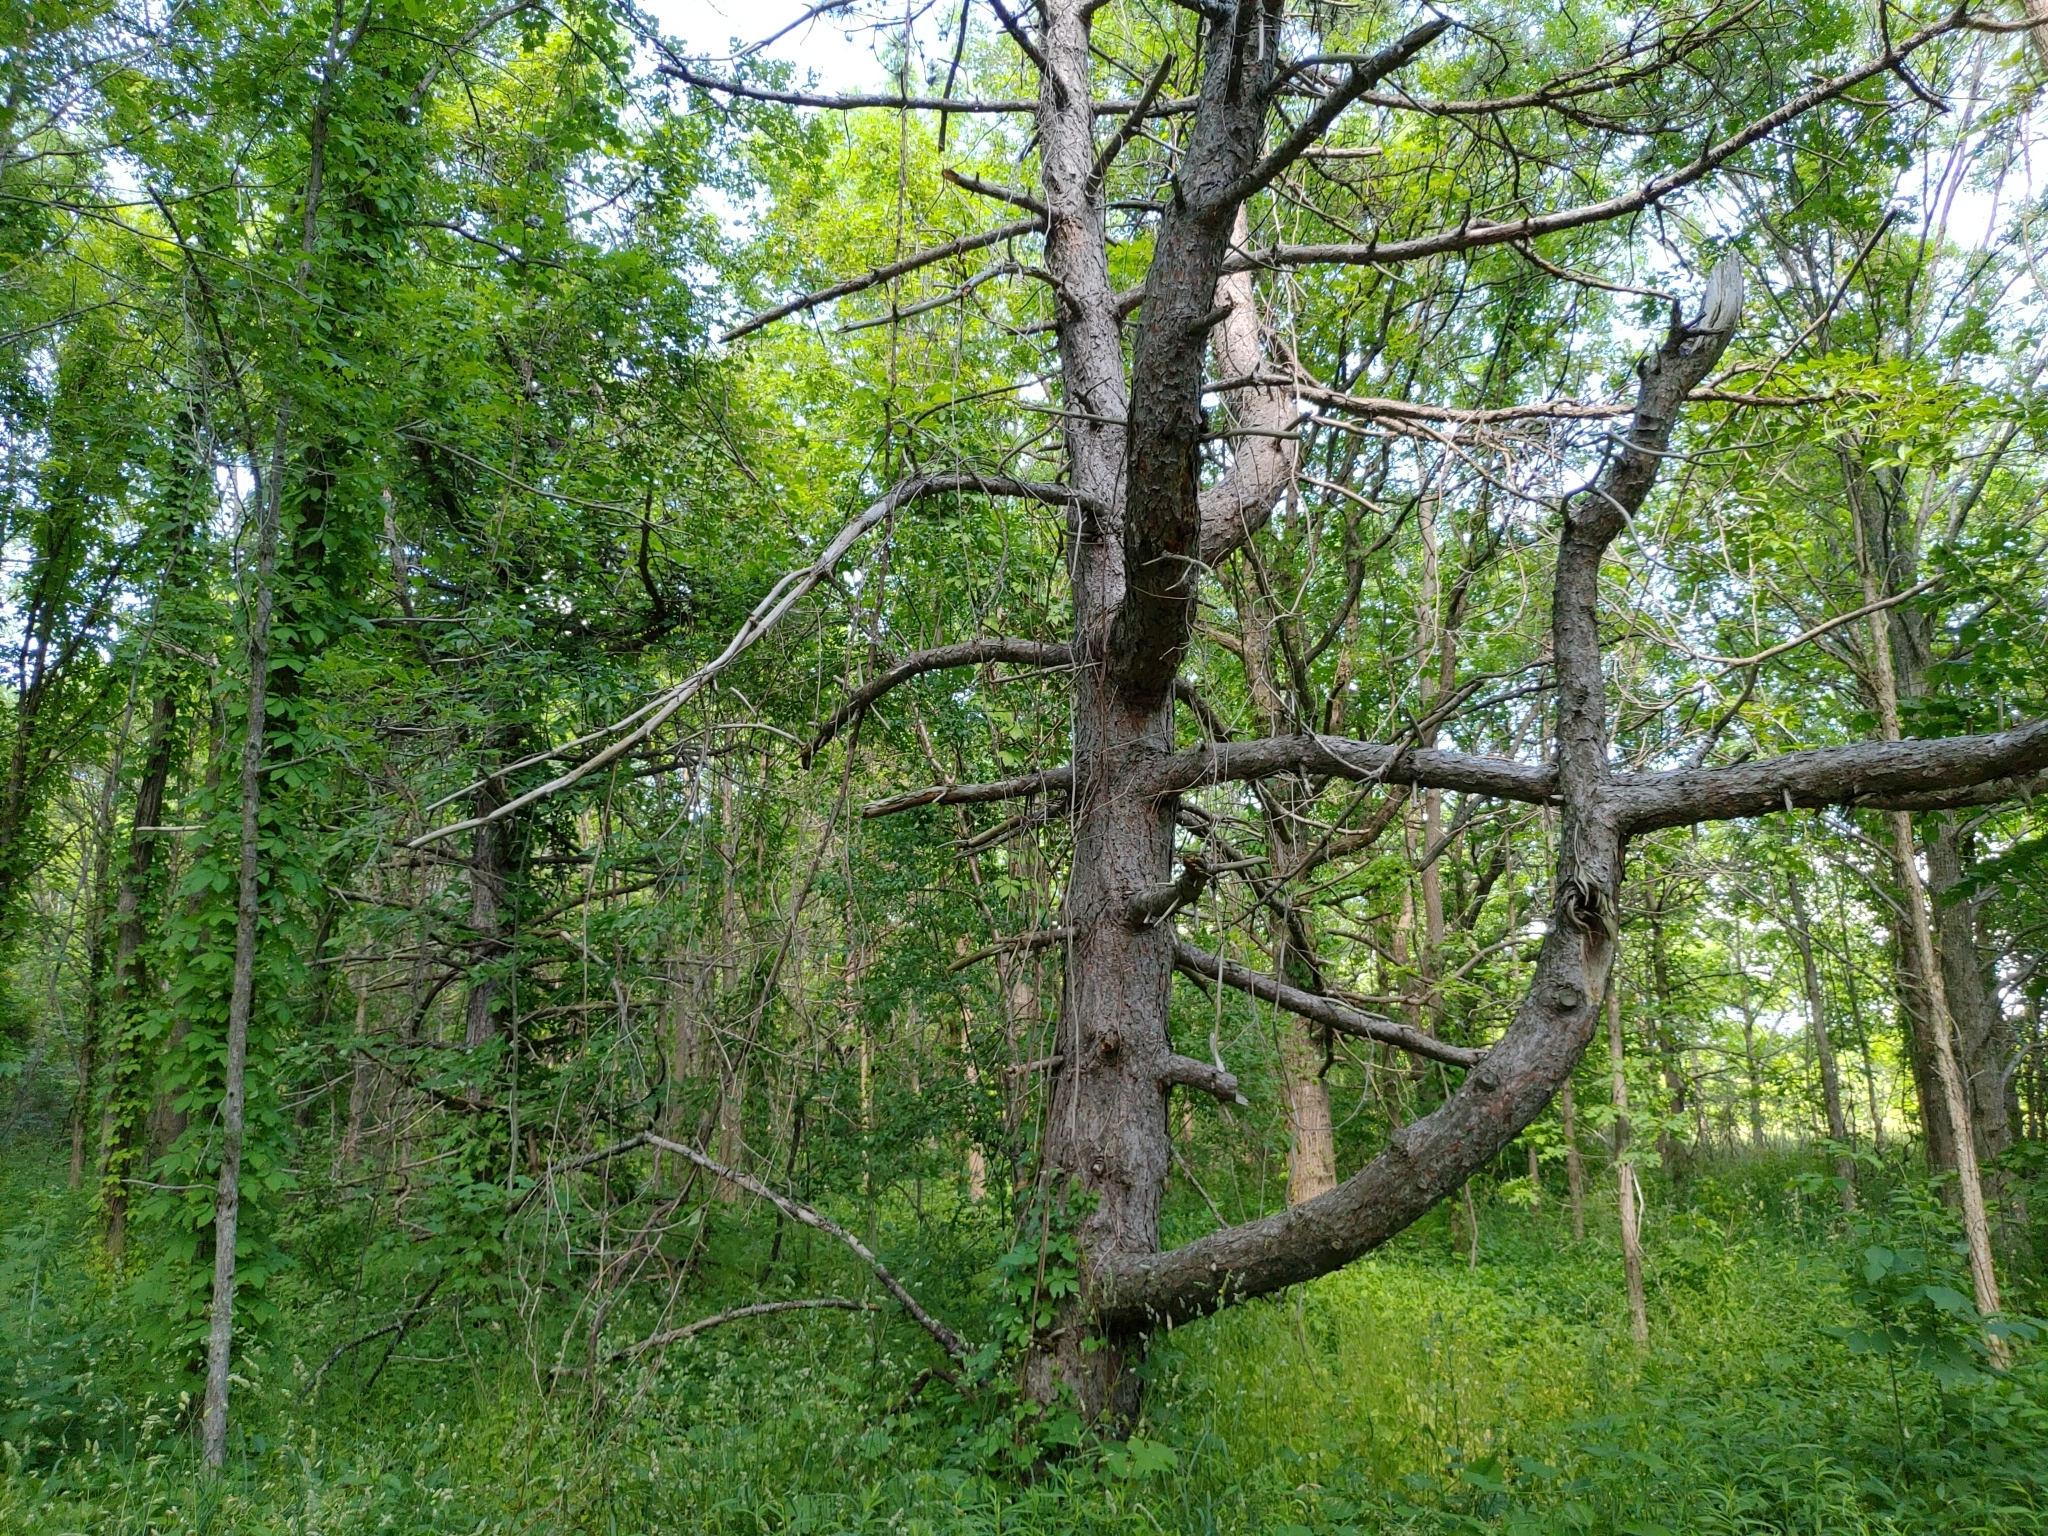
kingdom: Plantae
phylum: Tracheophyta
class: Pinopsida
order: Pinales
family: Pinaceae
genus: Pinus
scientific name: Pinus strobus
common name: Weymouth pine
